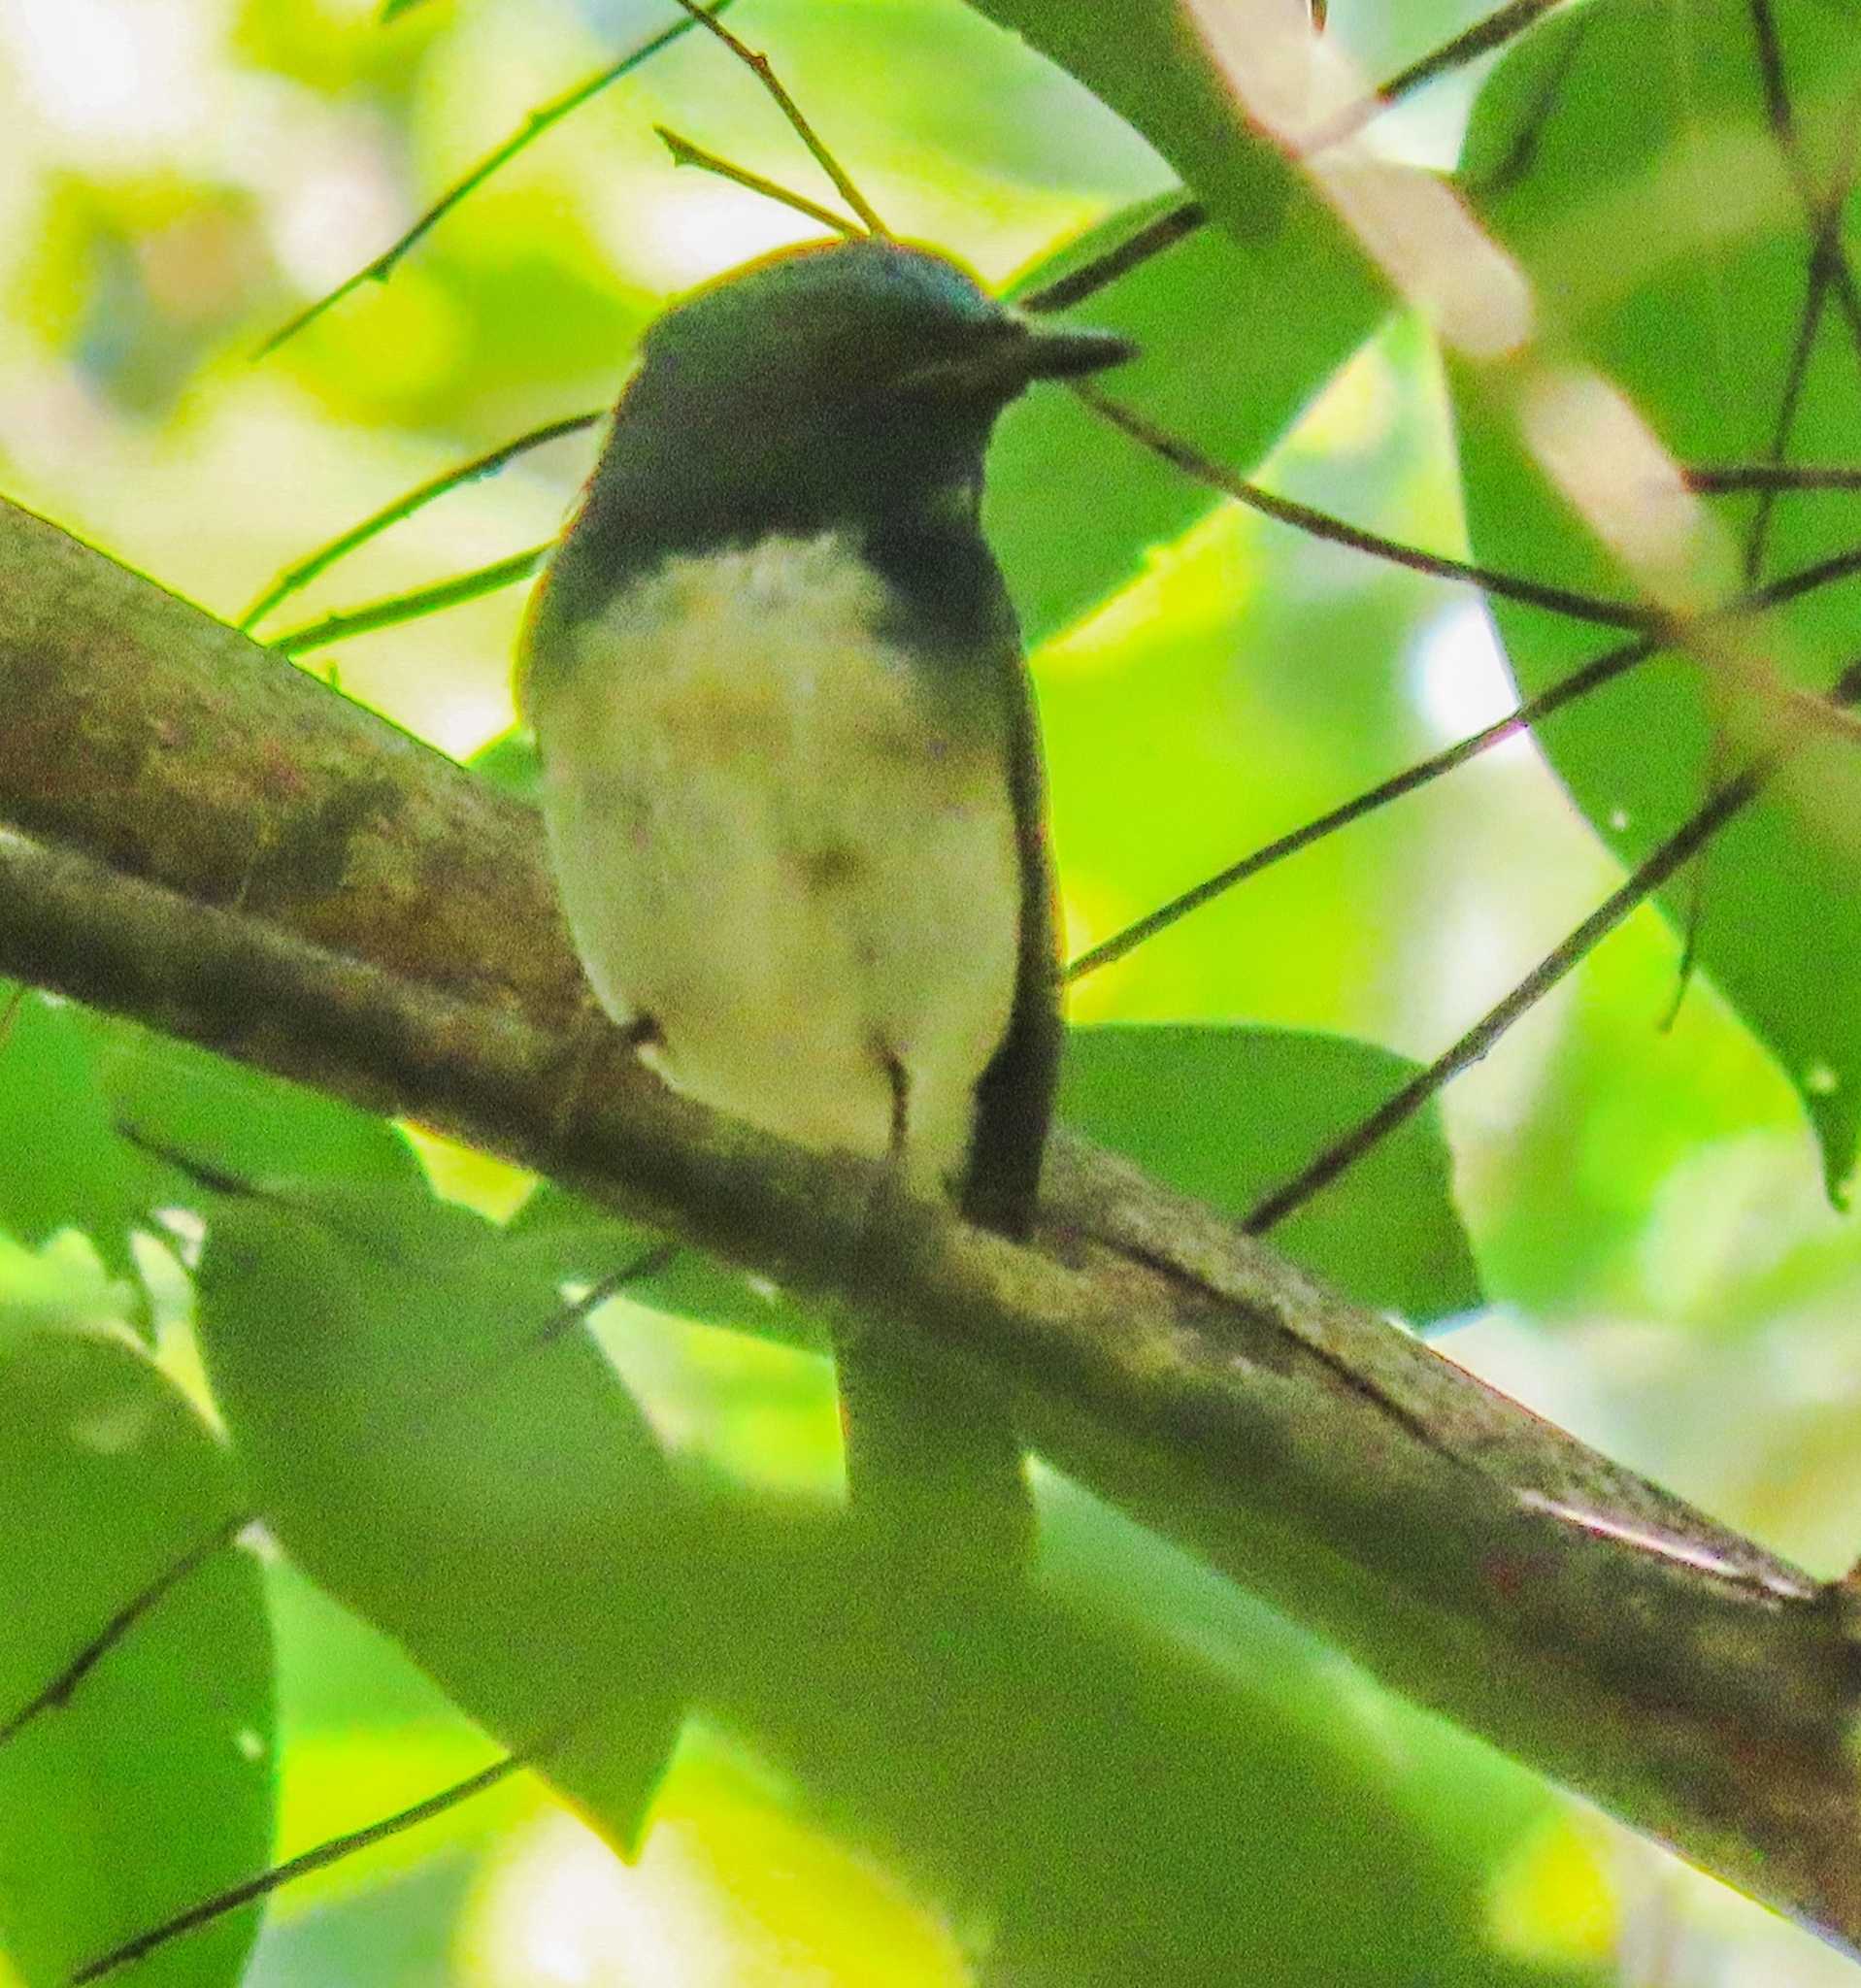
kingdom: Animalia
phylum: Chordata
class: Aves
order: Passeriformes
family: Muscicapidae
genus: Cyornis
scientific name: Cyornis hainanus
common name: Hainan blue flycatcher
